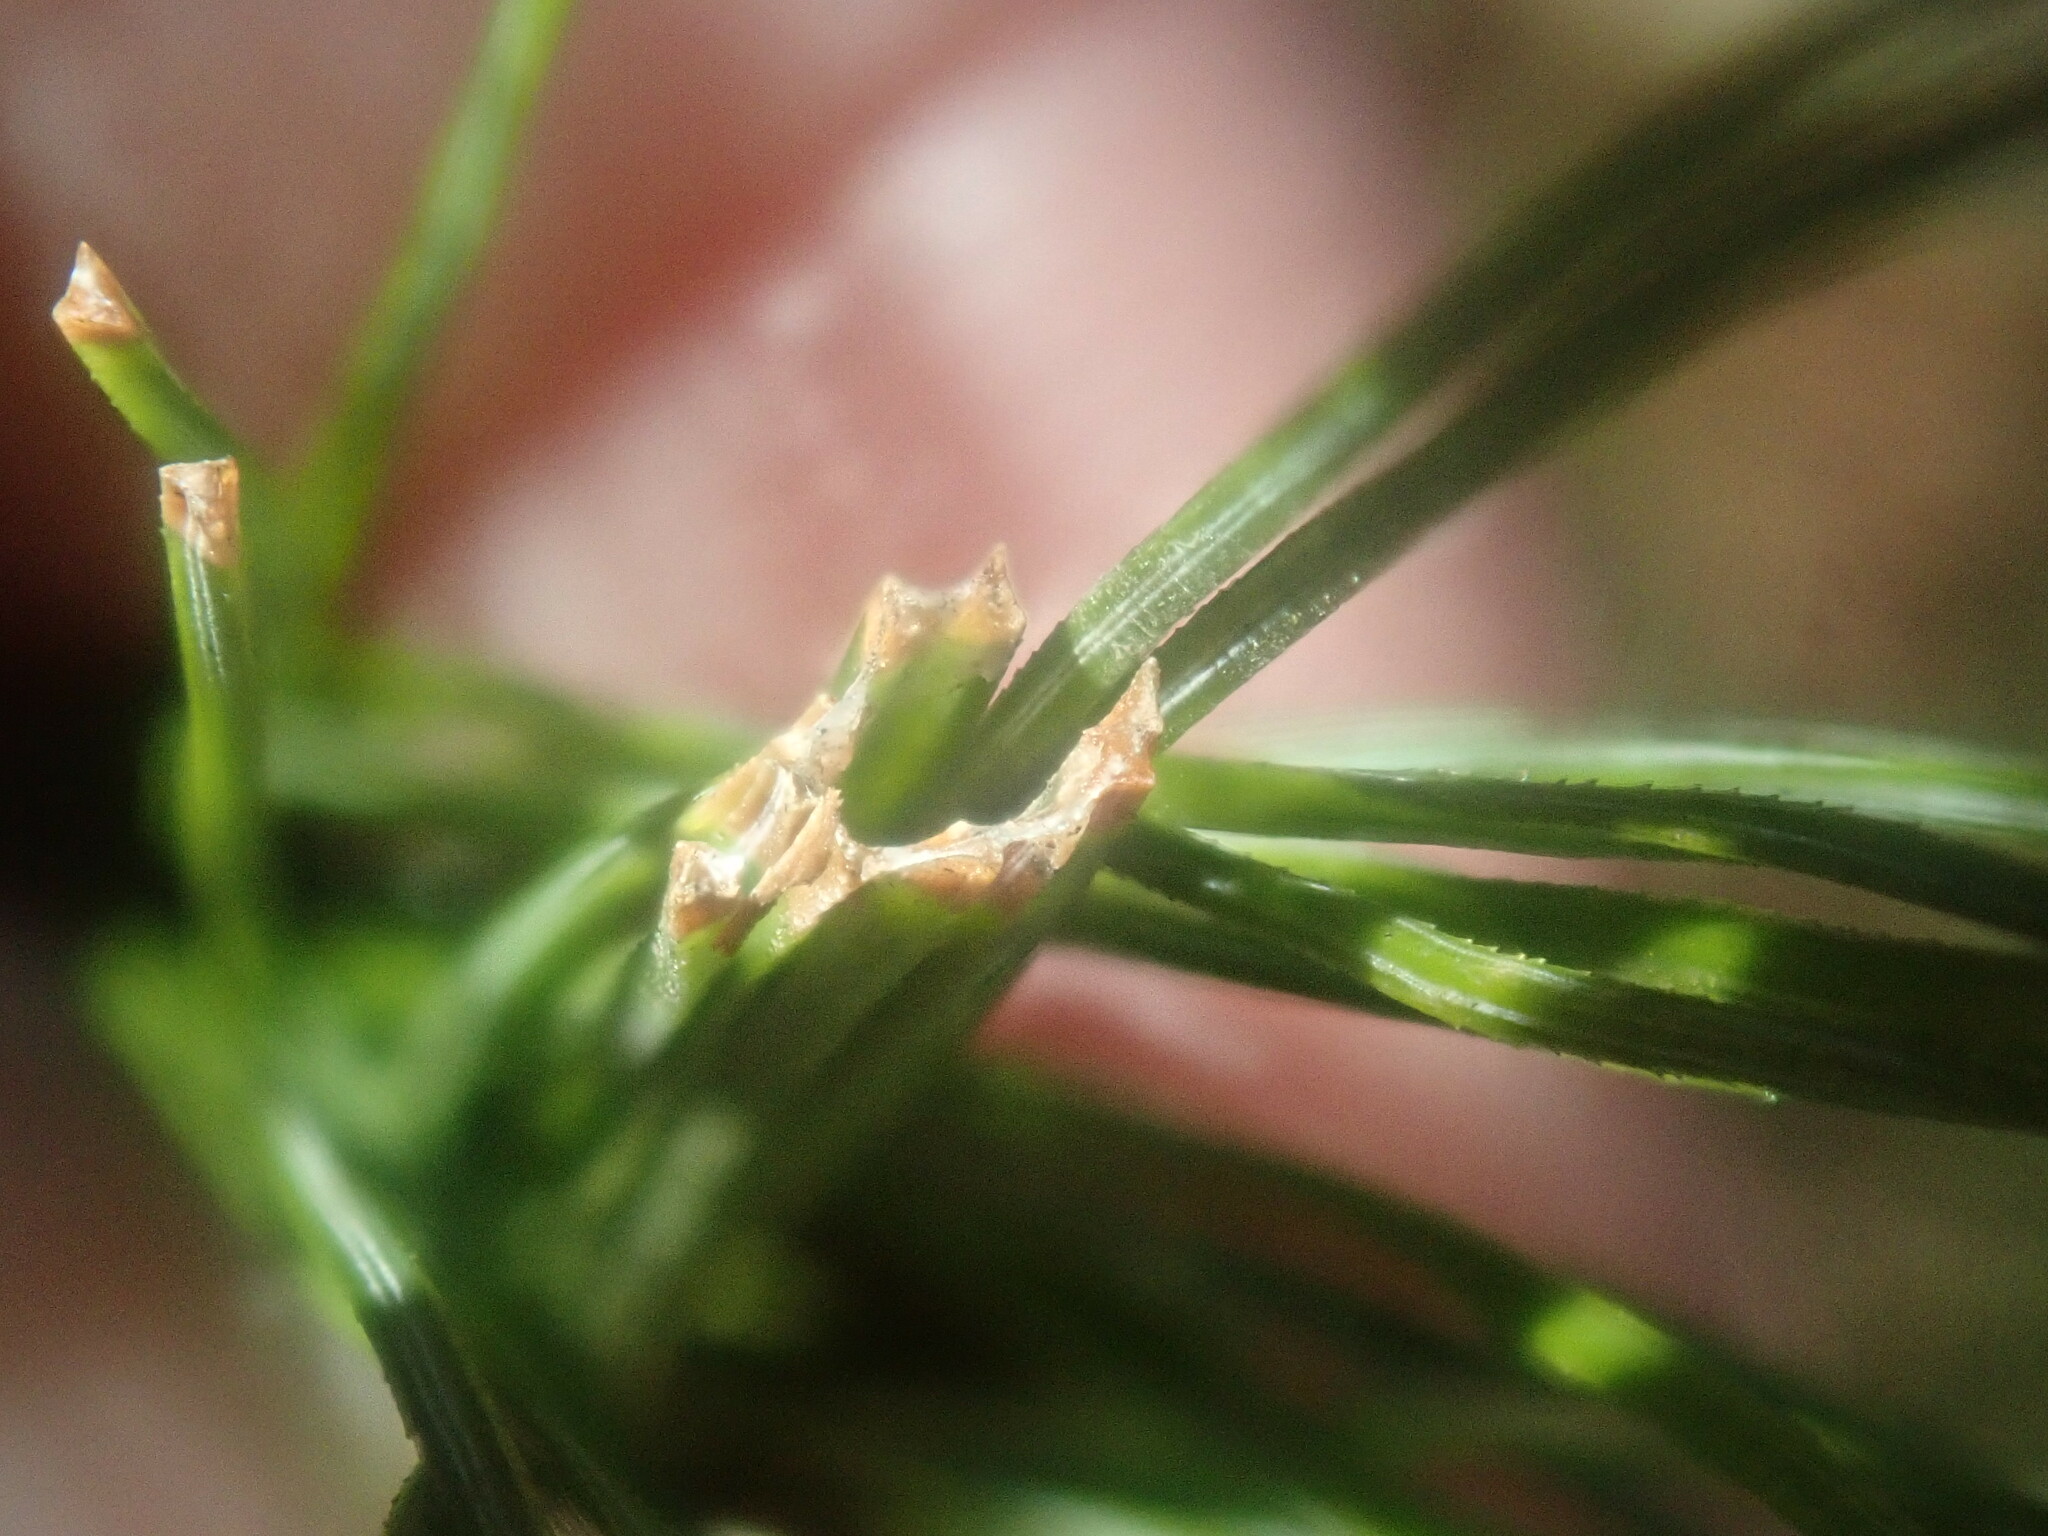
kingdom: Animalia
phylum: Arthropoda
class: Insecta
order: Lepidoptera
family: Tortricidae
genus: Argyrotaenia
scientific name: Argyrotaenia pinatubana
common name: Pine tube moth
